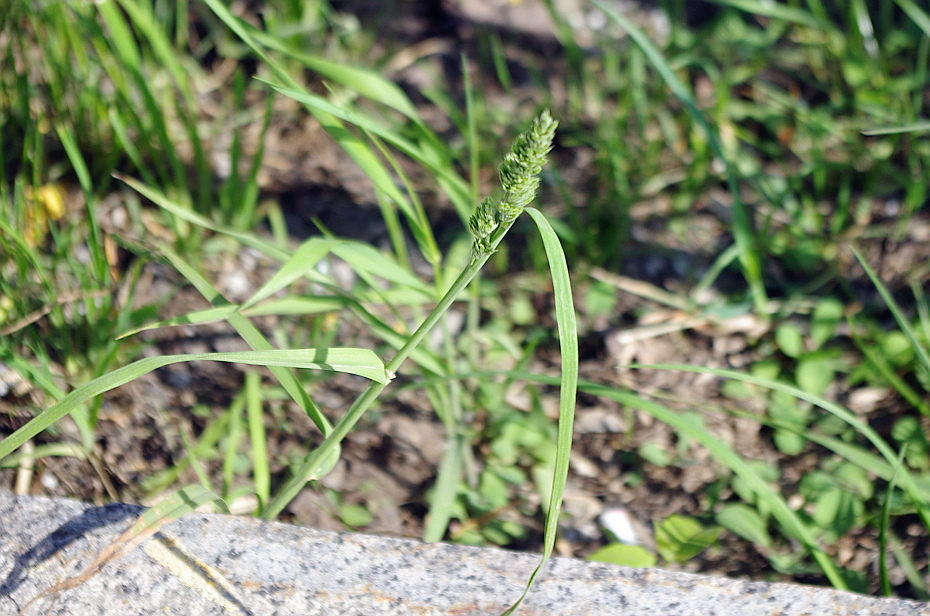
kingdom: Plantae
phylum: Tracheophyta
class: Liliopsida
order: Poales
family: Poaceae
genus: Dactylis
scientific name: Dactylis glomerata
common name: Orchardgrass
